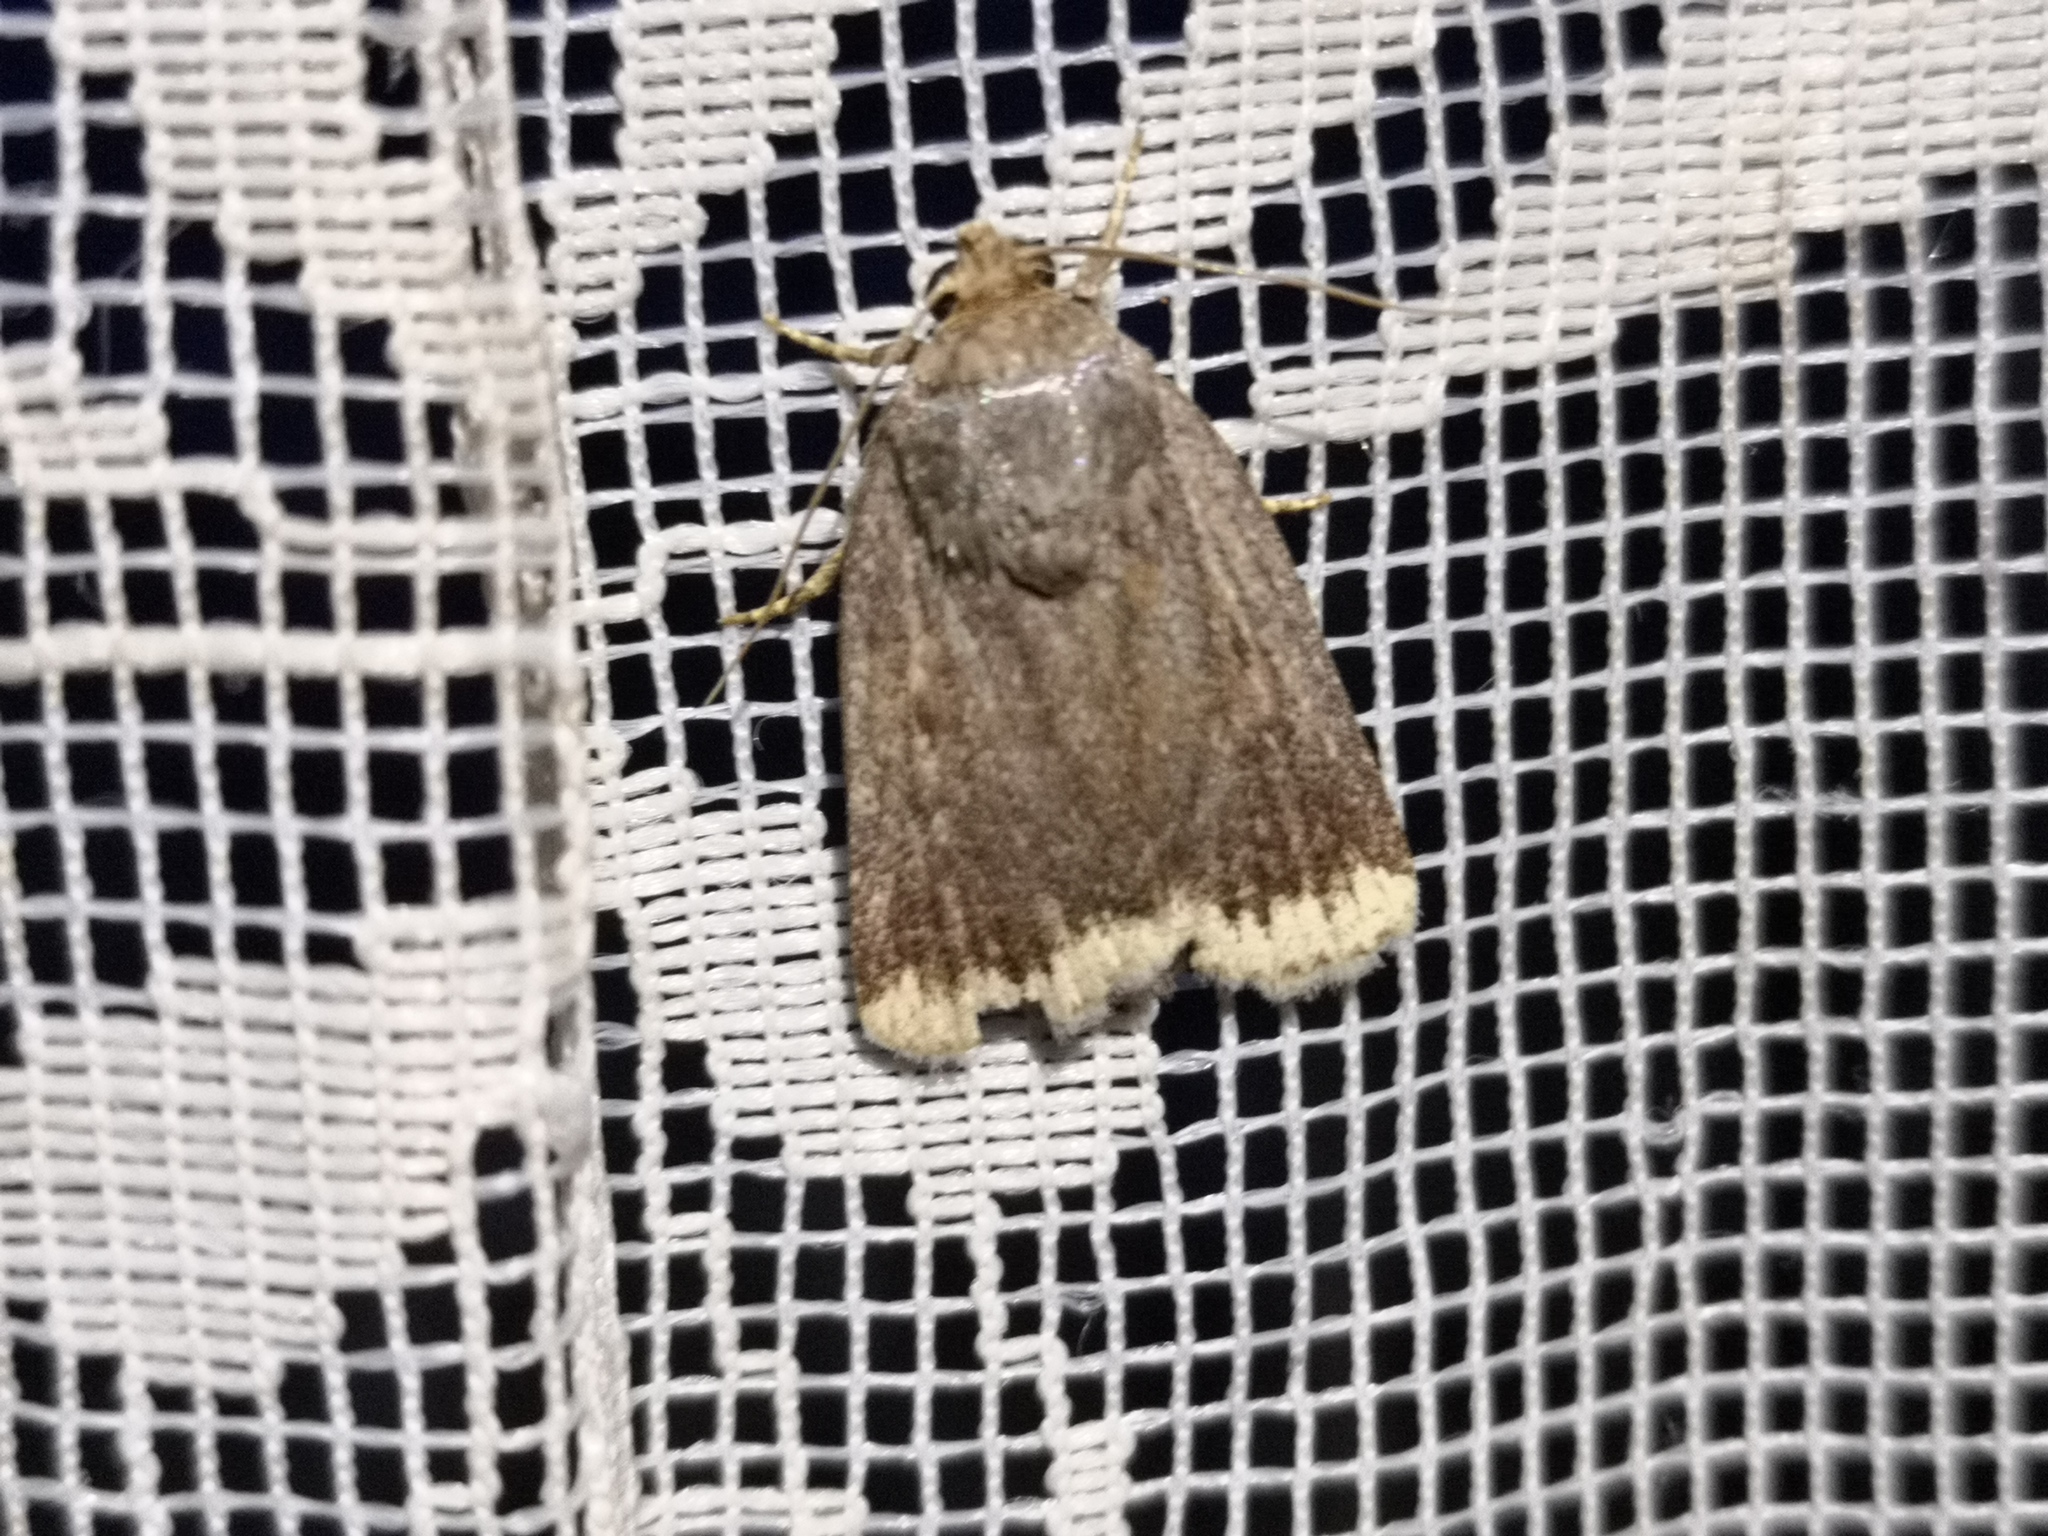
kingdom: Animalia
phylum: Arthropoda
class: Insecta
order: Lepidoptera
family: Noctuidae
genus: Amphipyra
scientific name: Amphipyra styx
